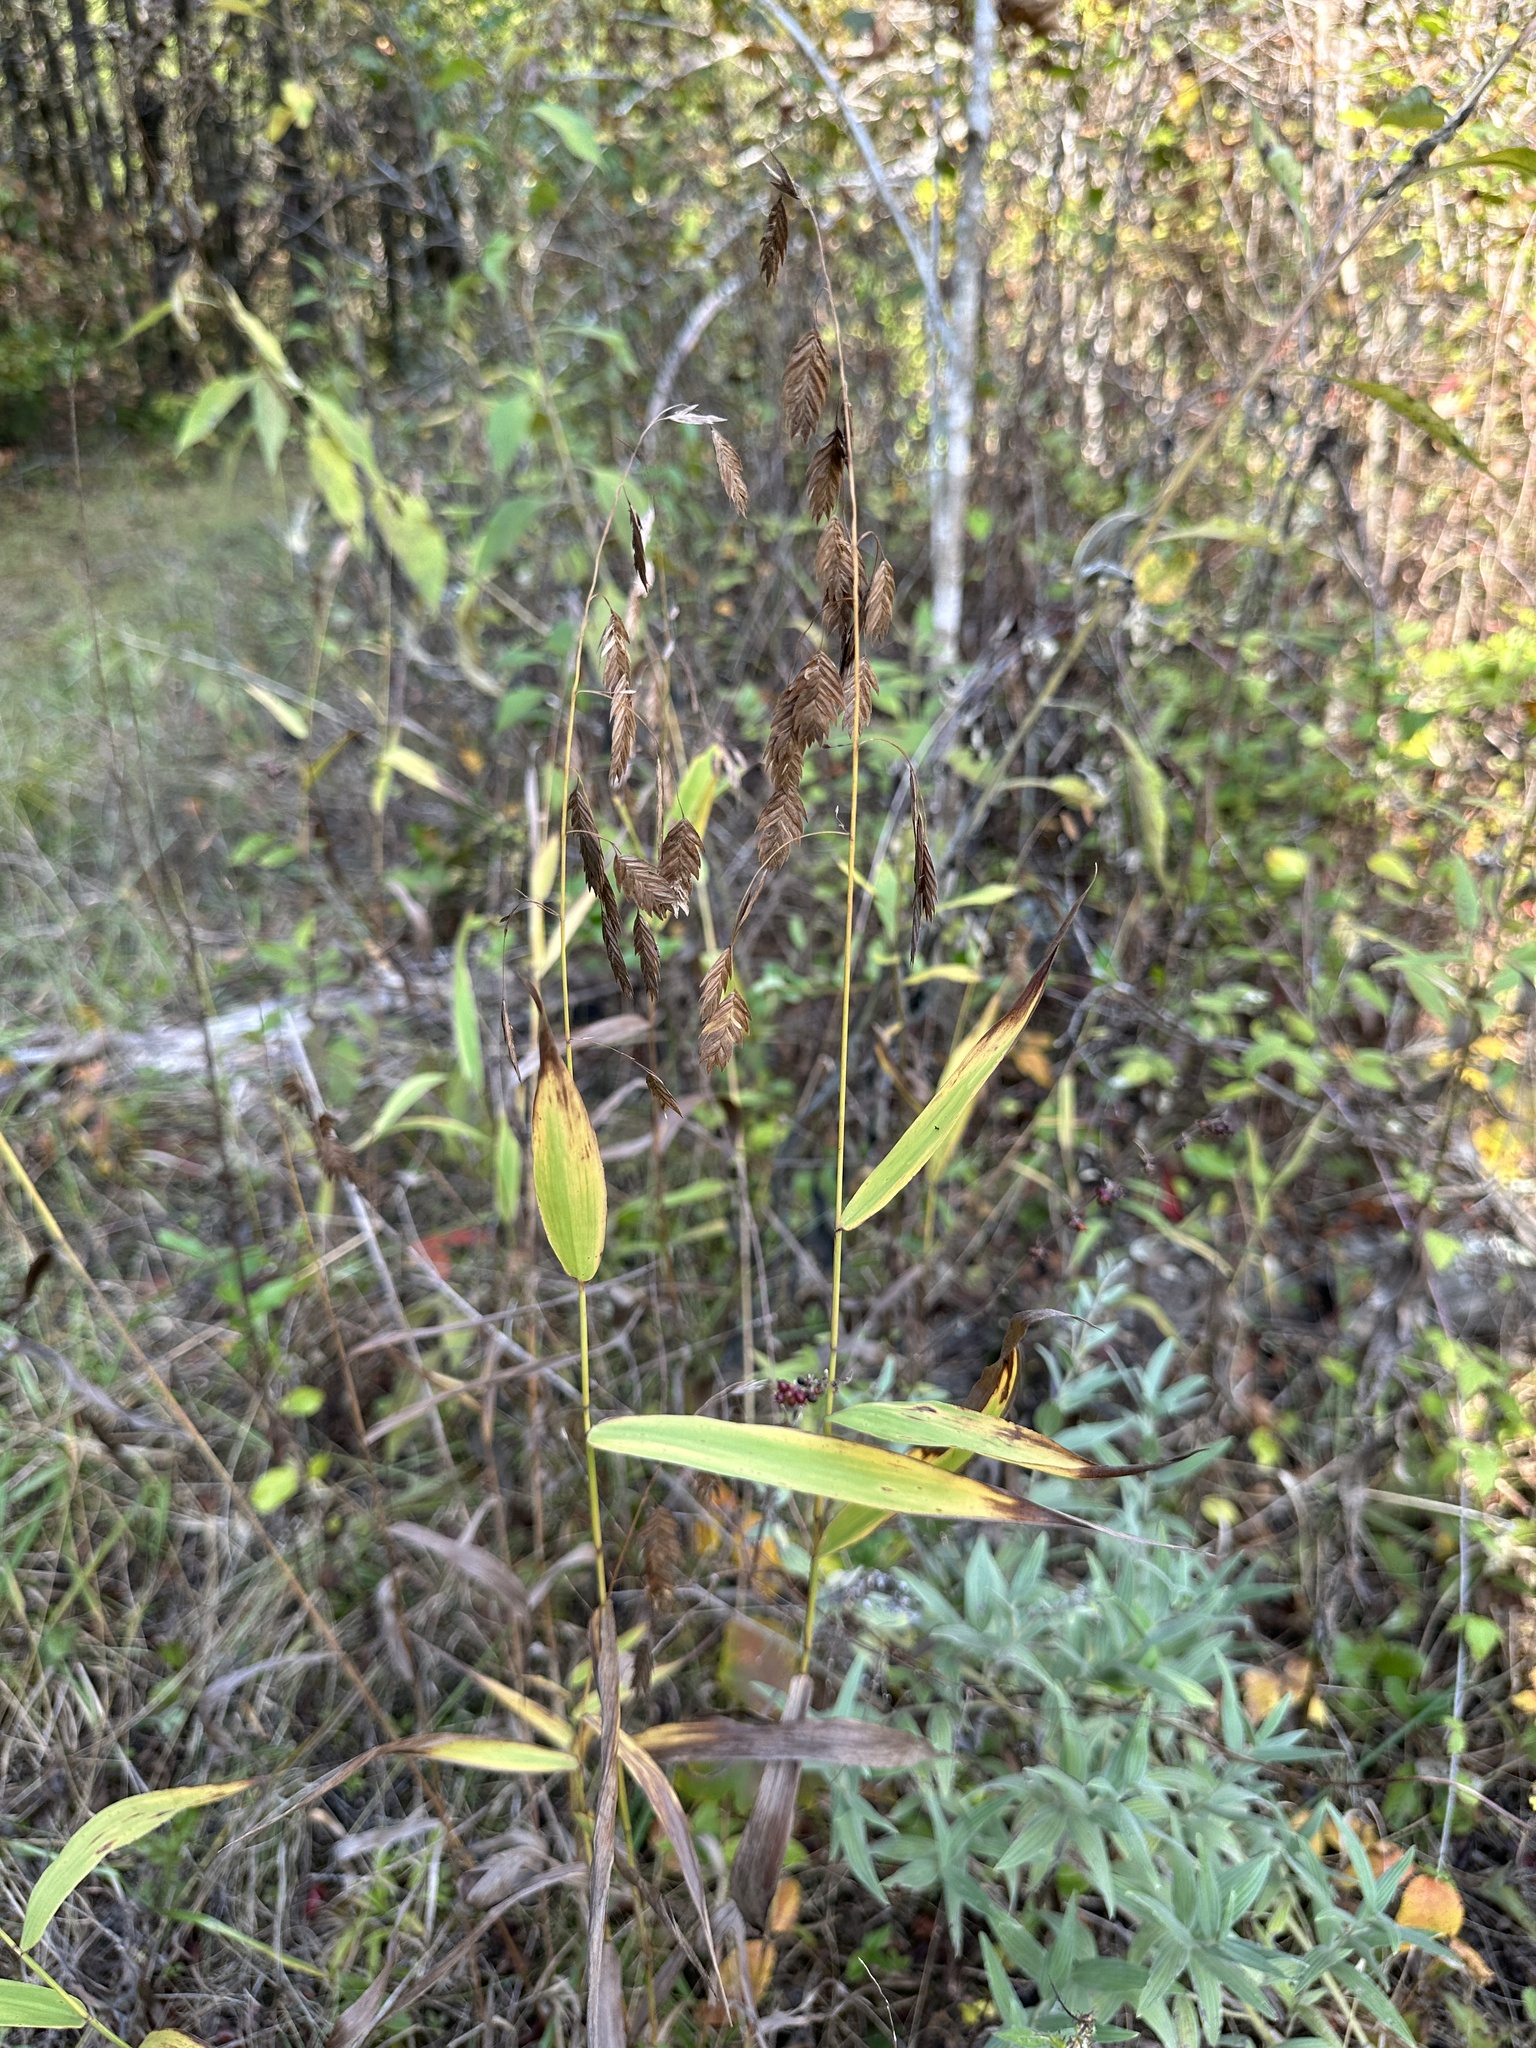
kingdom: Plantae
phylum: Tracheophyta
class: Liliopsida
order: Poales
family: Poaceae
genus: Chasmanthium
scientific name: Chasmanthium latifolium
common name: Broad-leaved chasmanthium
